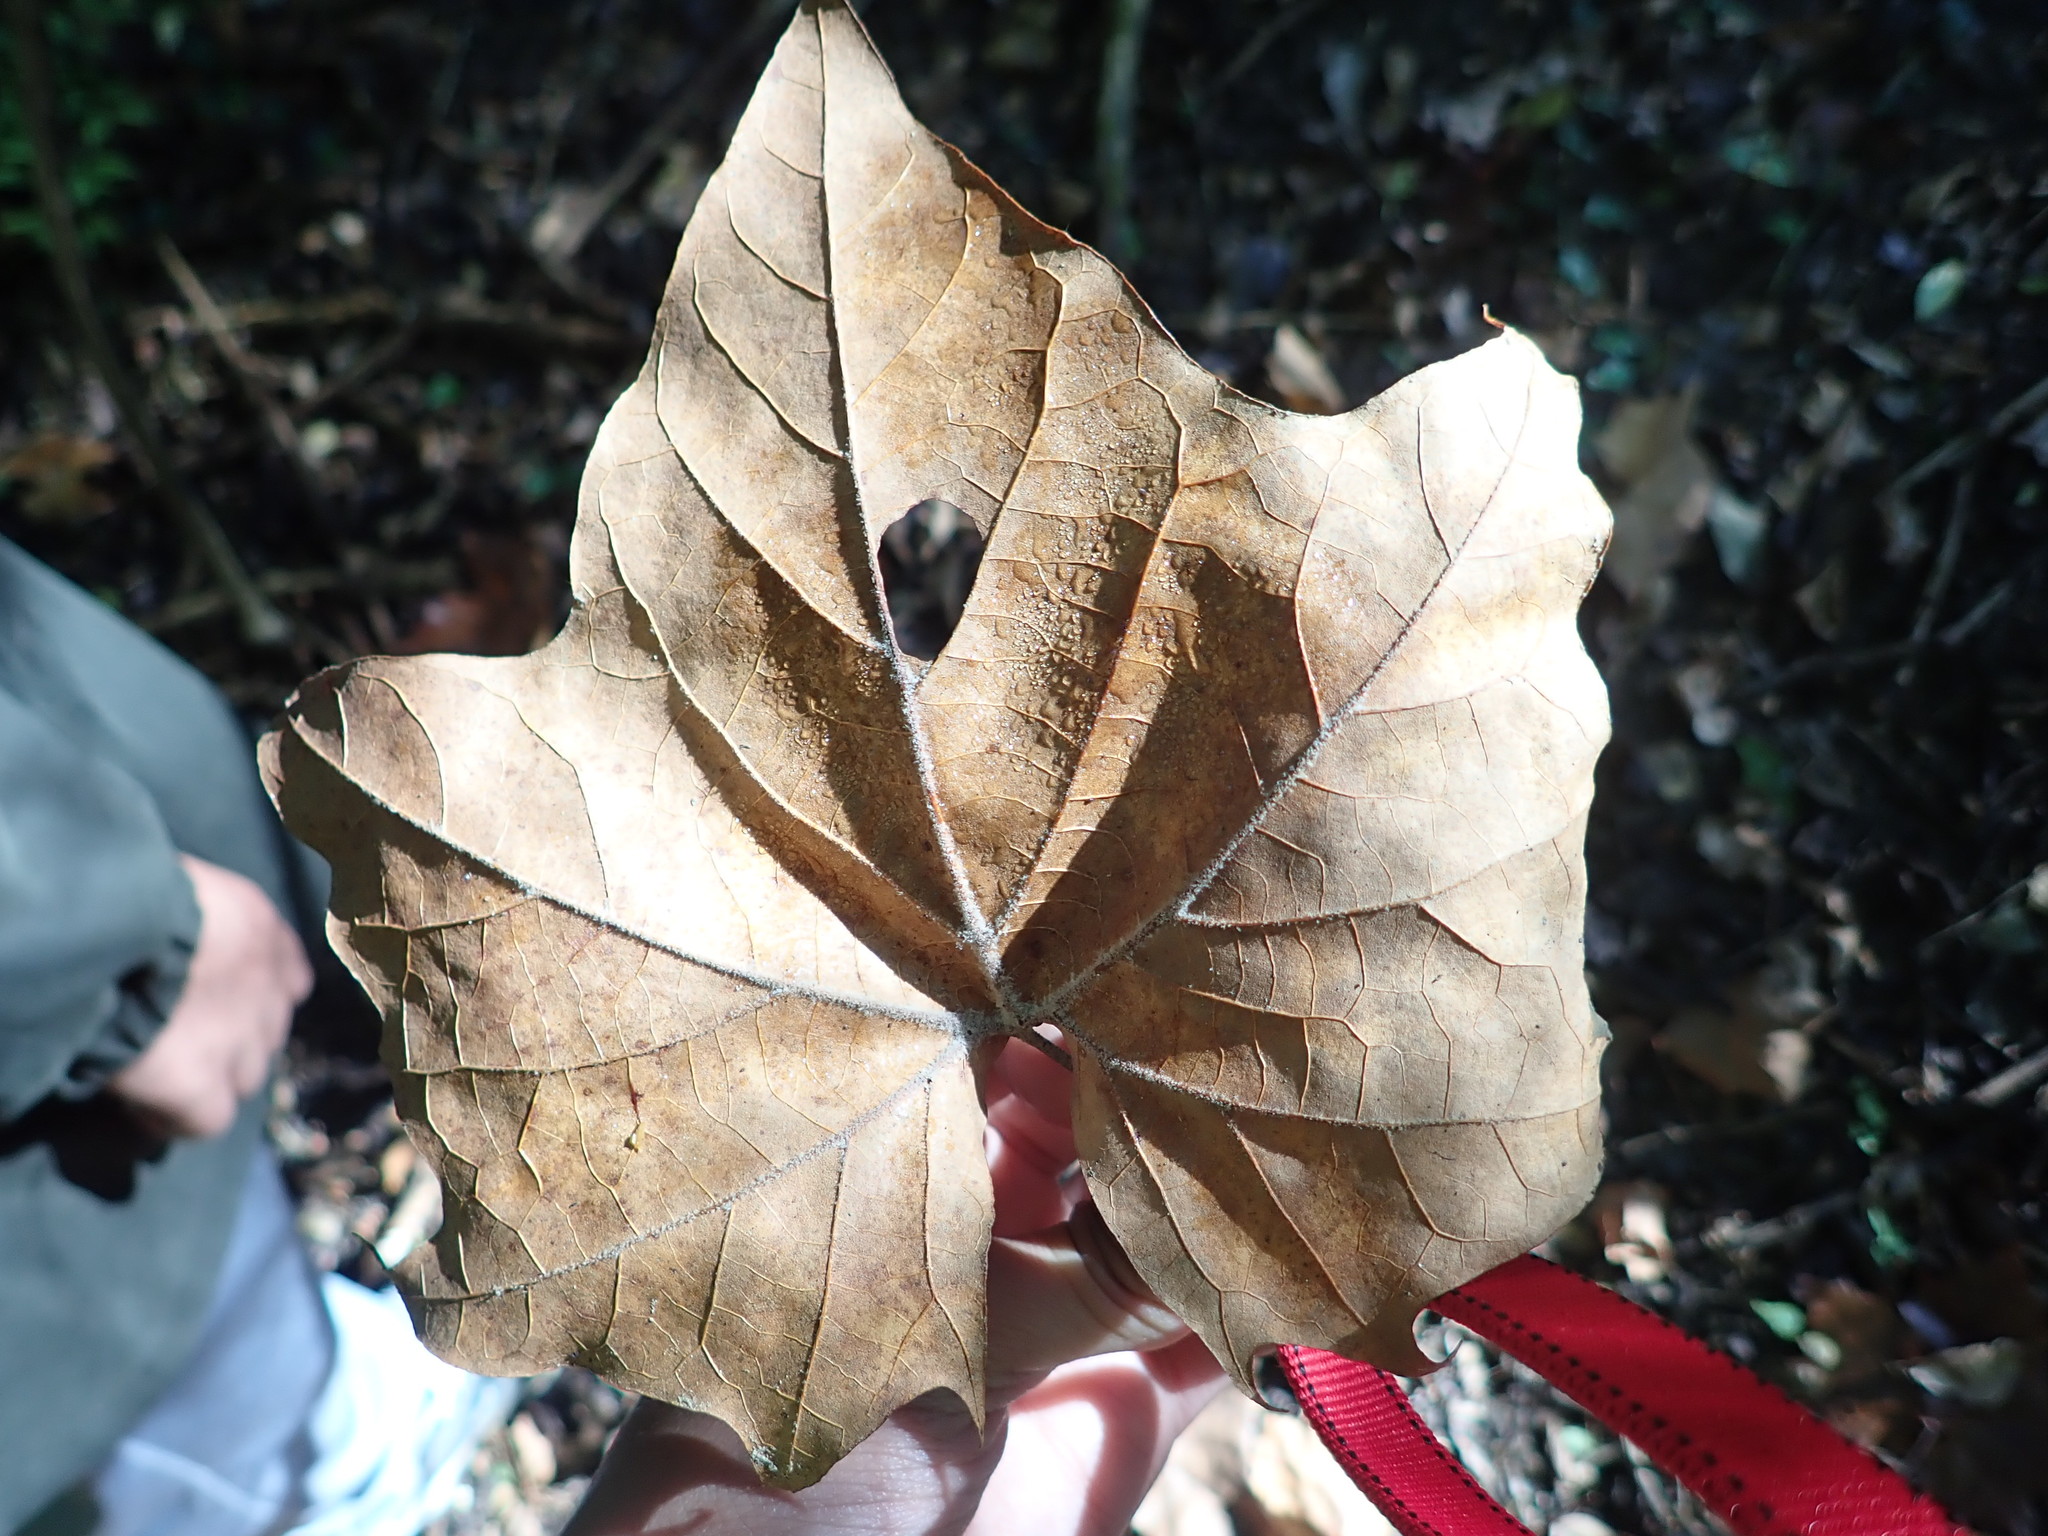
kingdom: Plantae
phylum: Tracheophyta
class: Magnoliopsida
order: Proteales
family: Platanaceae
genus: Platanus
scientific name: Platanus occidentalis
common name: American sycamore
